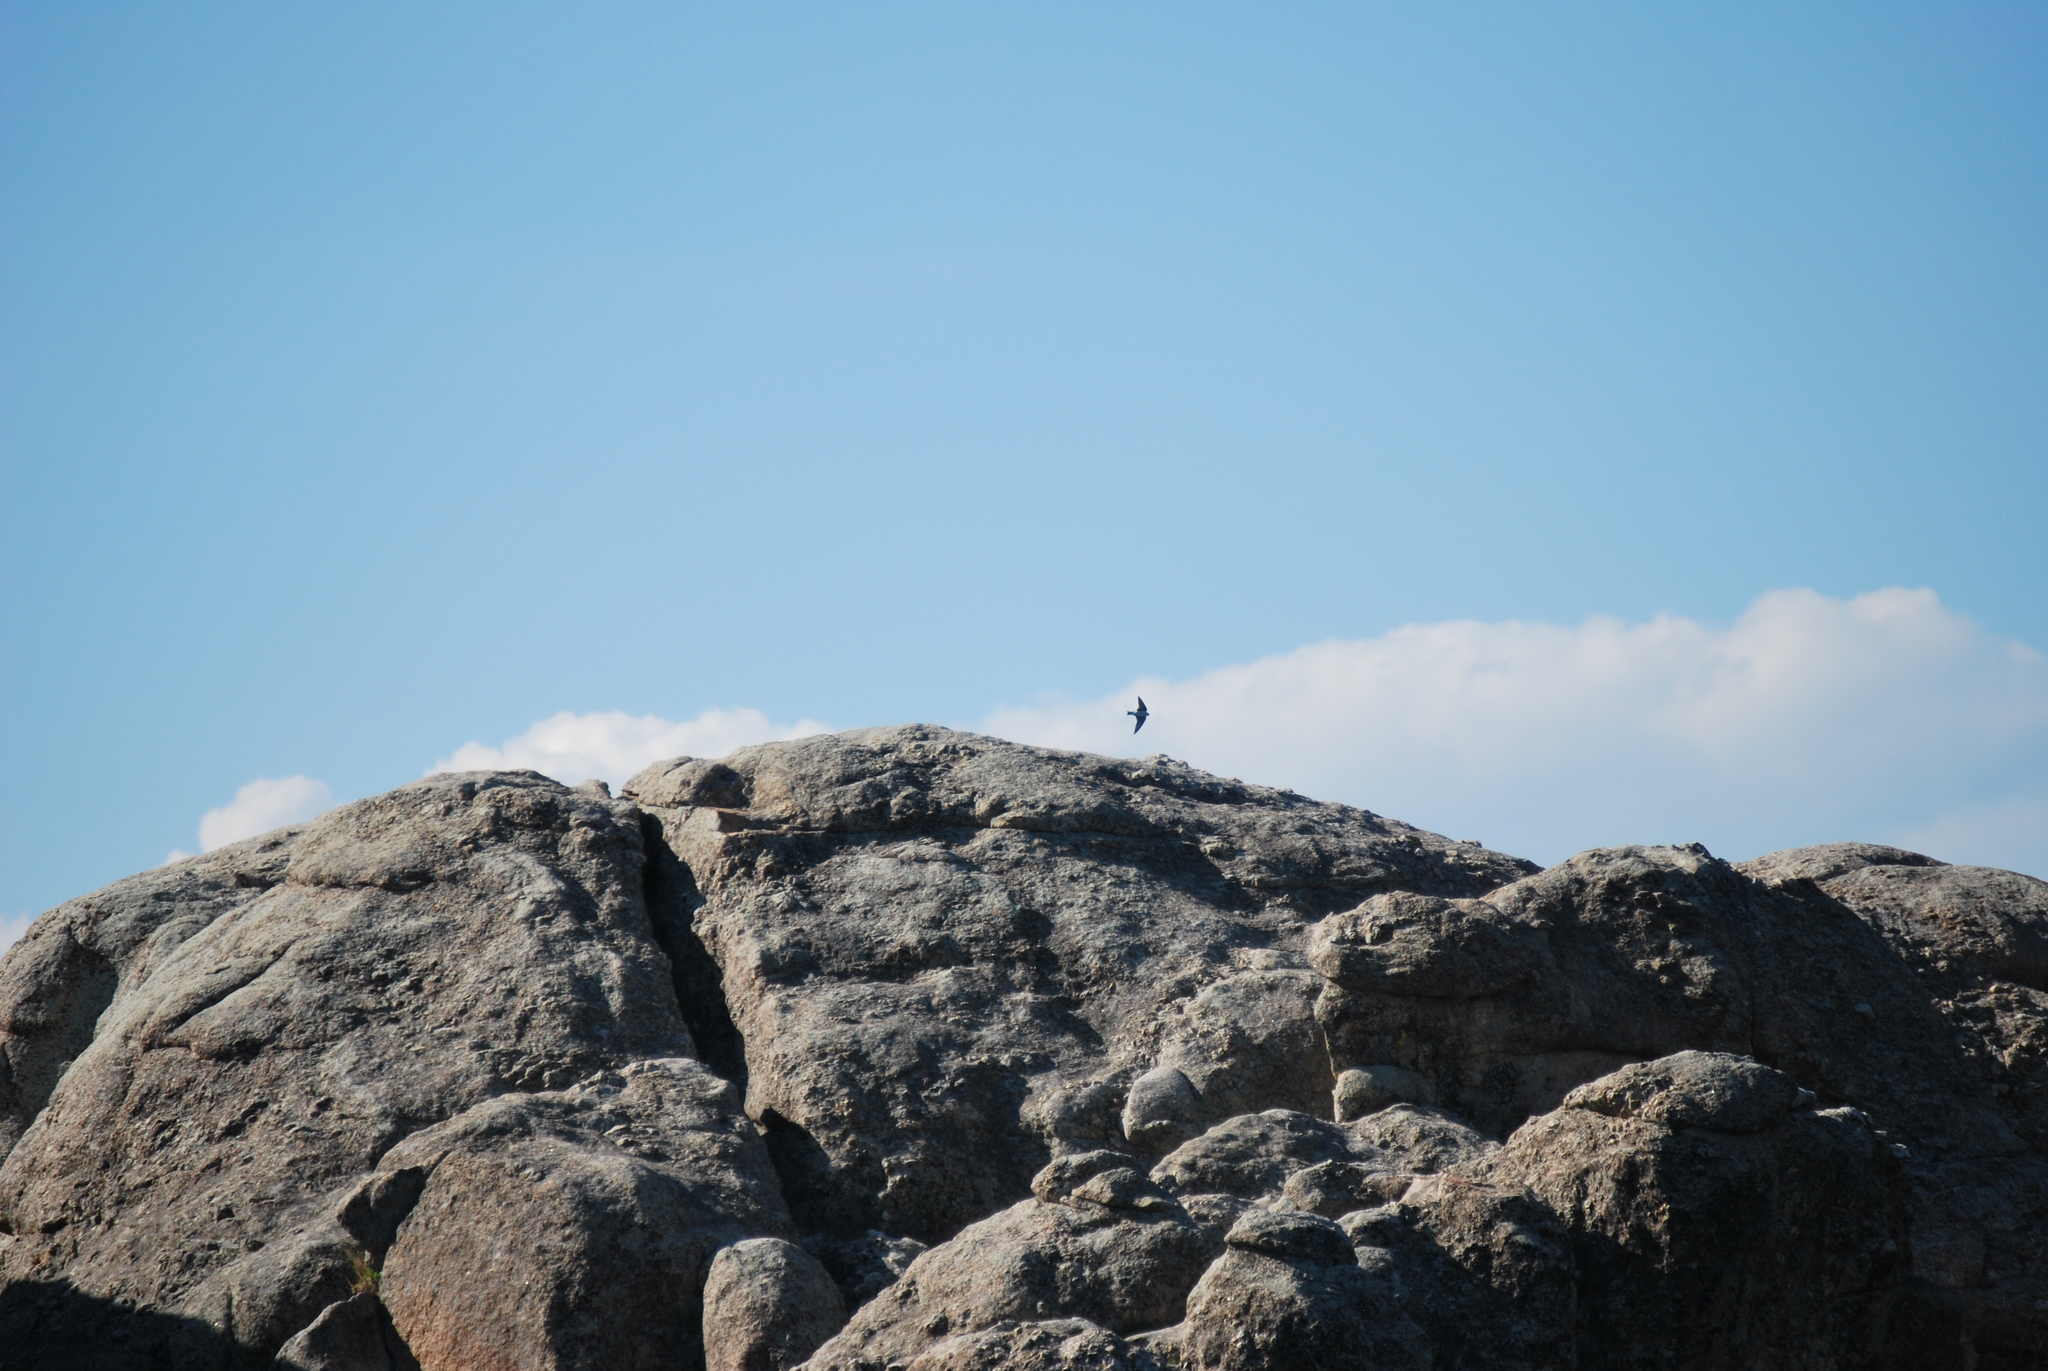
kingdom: Animalia
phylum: Chordata
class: Aves
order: Passeriformes
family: Hirundinidae
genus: Tachycineta
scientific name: Tachycineta bicolor
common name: Tree swallow
